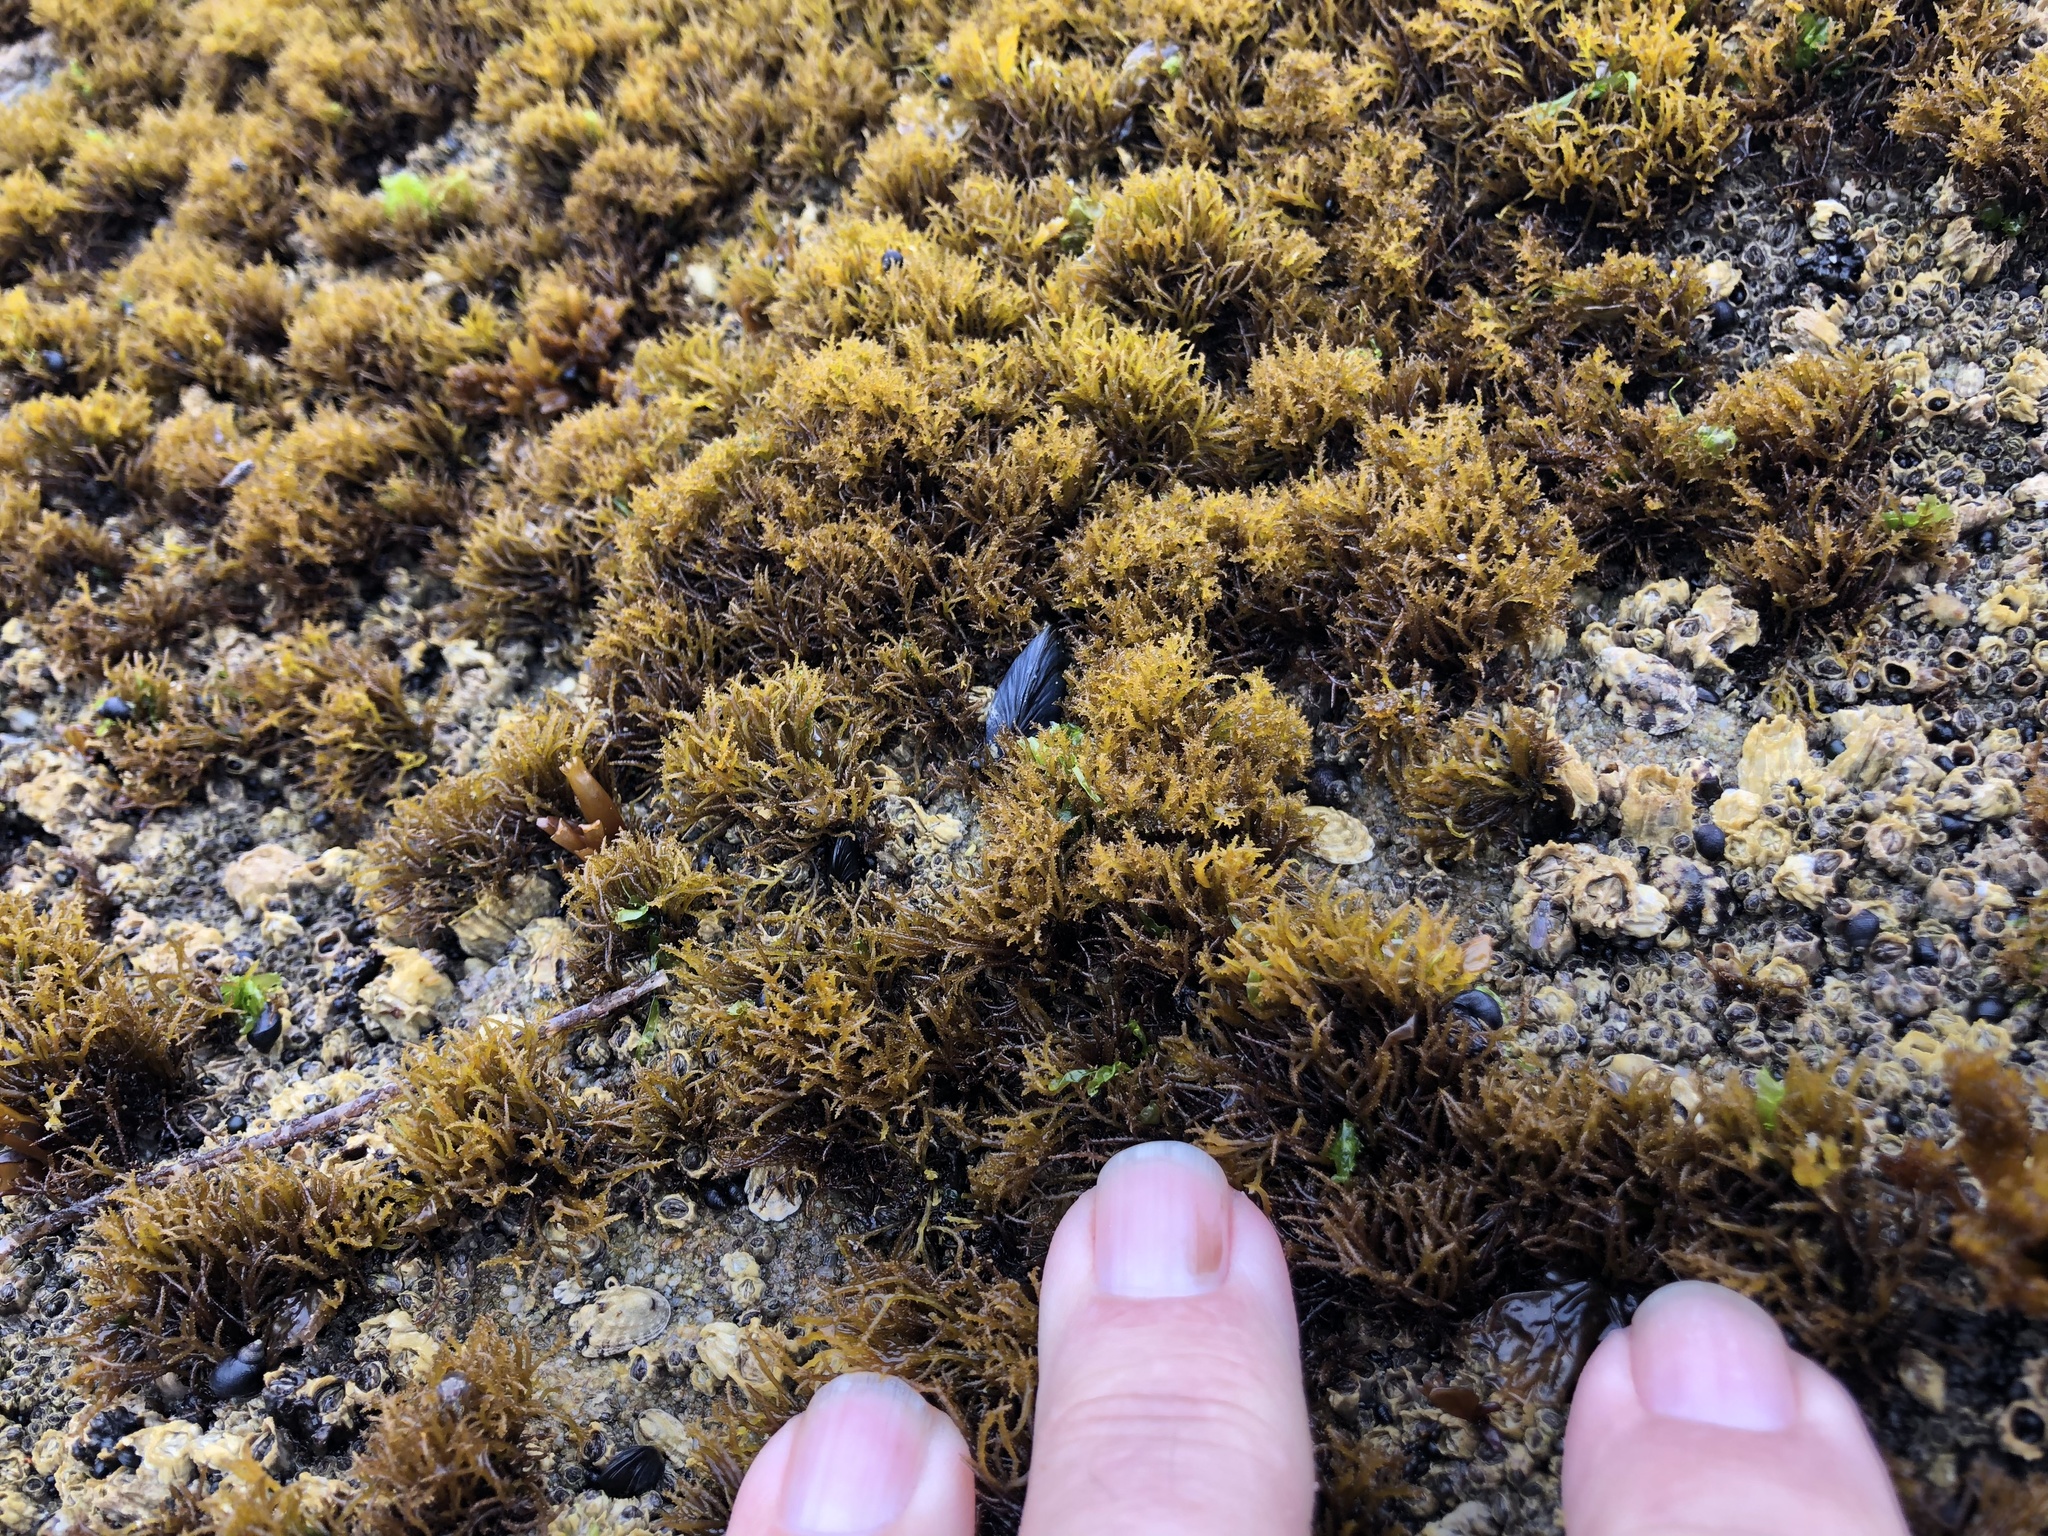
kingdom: Plantae
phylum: Rhodophyta
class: Florideophyceae
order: Gigartinales
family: Endocladiaceae
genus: Endocladia
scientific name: Endocladia muricata
